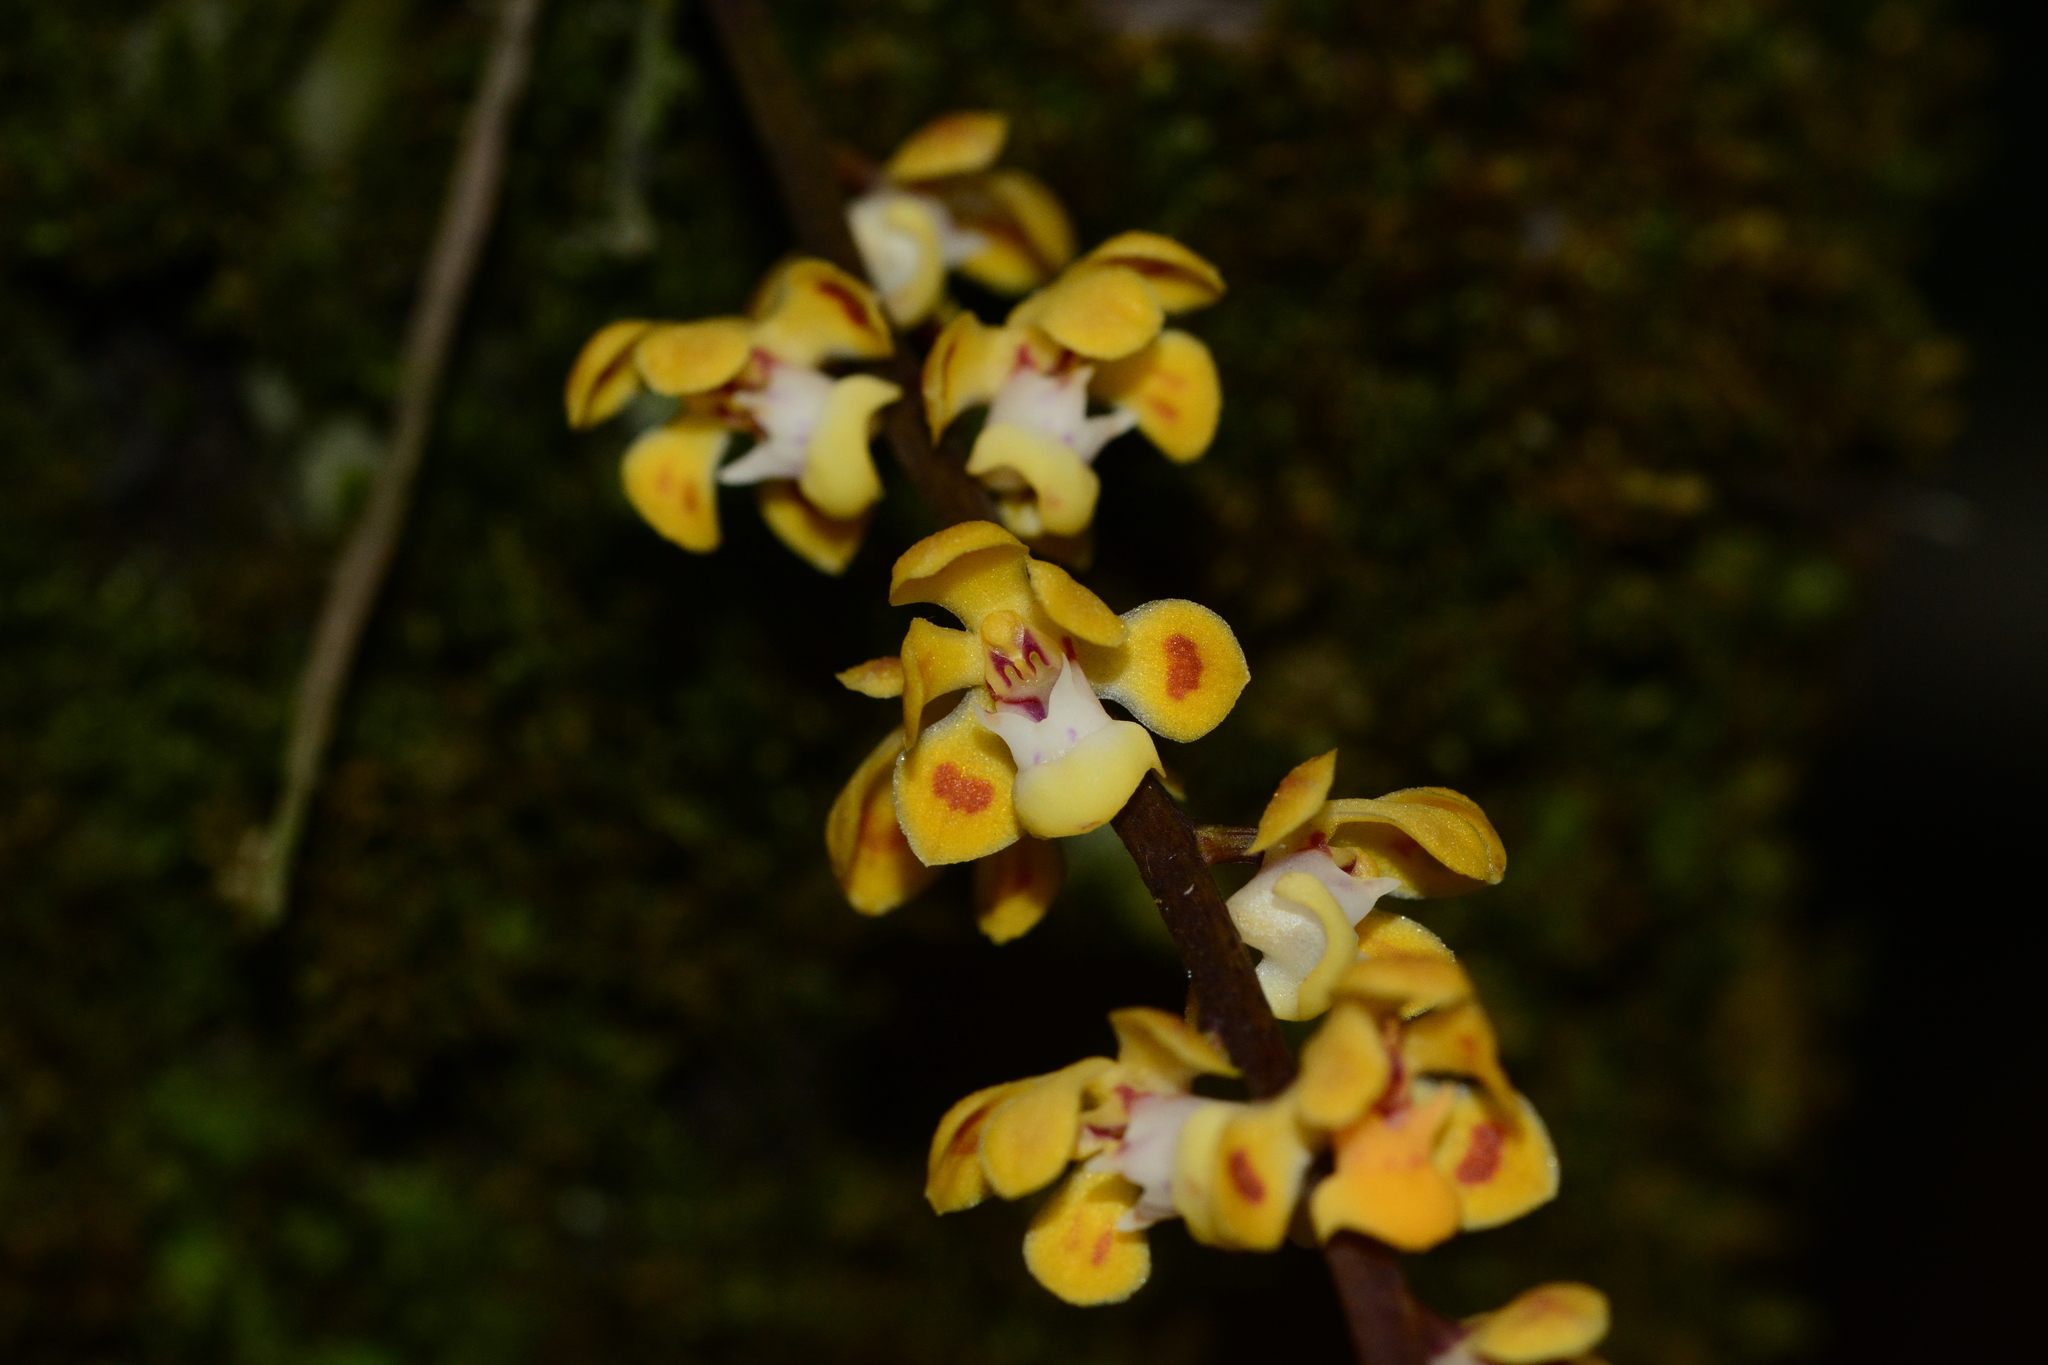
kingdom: Plantae
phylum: Tracheophyta
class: Liliopsida
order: Asparagales
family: Orchidaceae
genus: Smithsonia
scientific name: Smithsonia maculata
